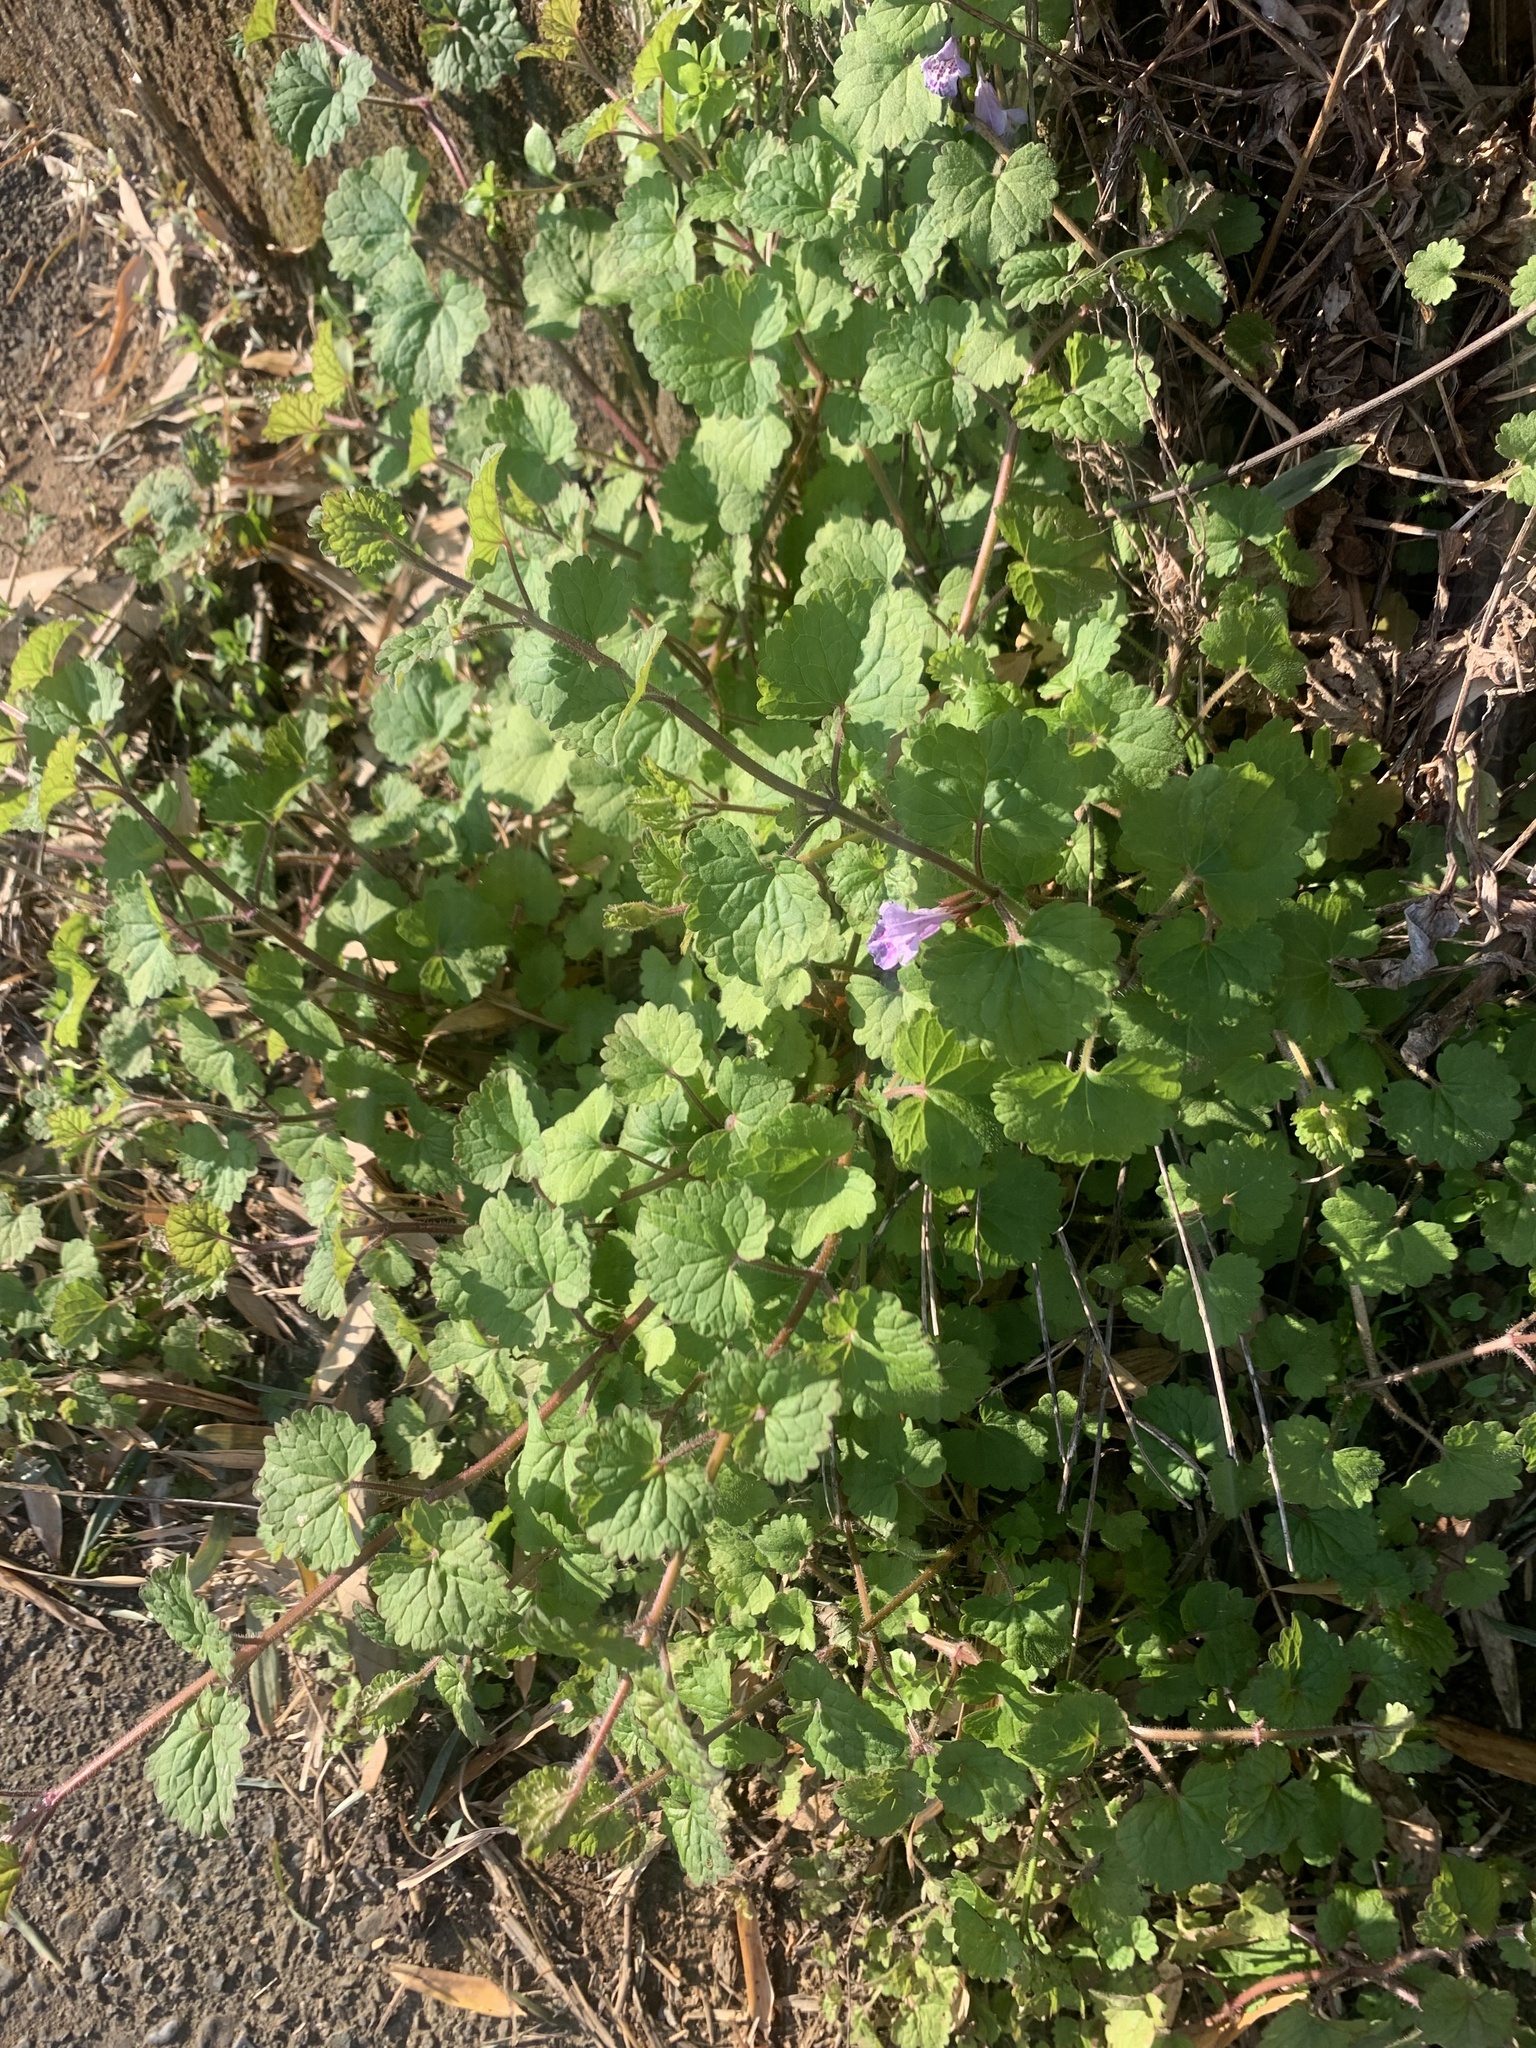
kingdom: Plantae
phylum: Tracheophyta
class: Magnoliopsida
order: Lamiales
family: Lamiaceae
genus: Glechoma
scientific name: Glechoma grandis
